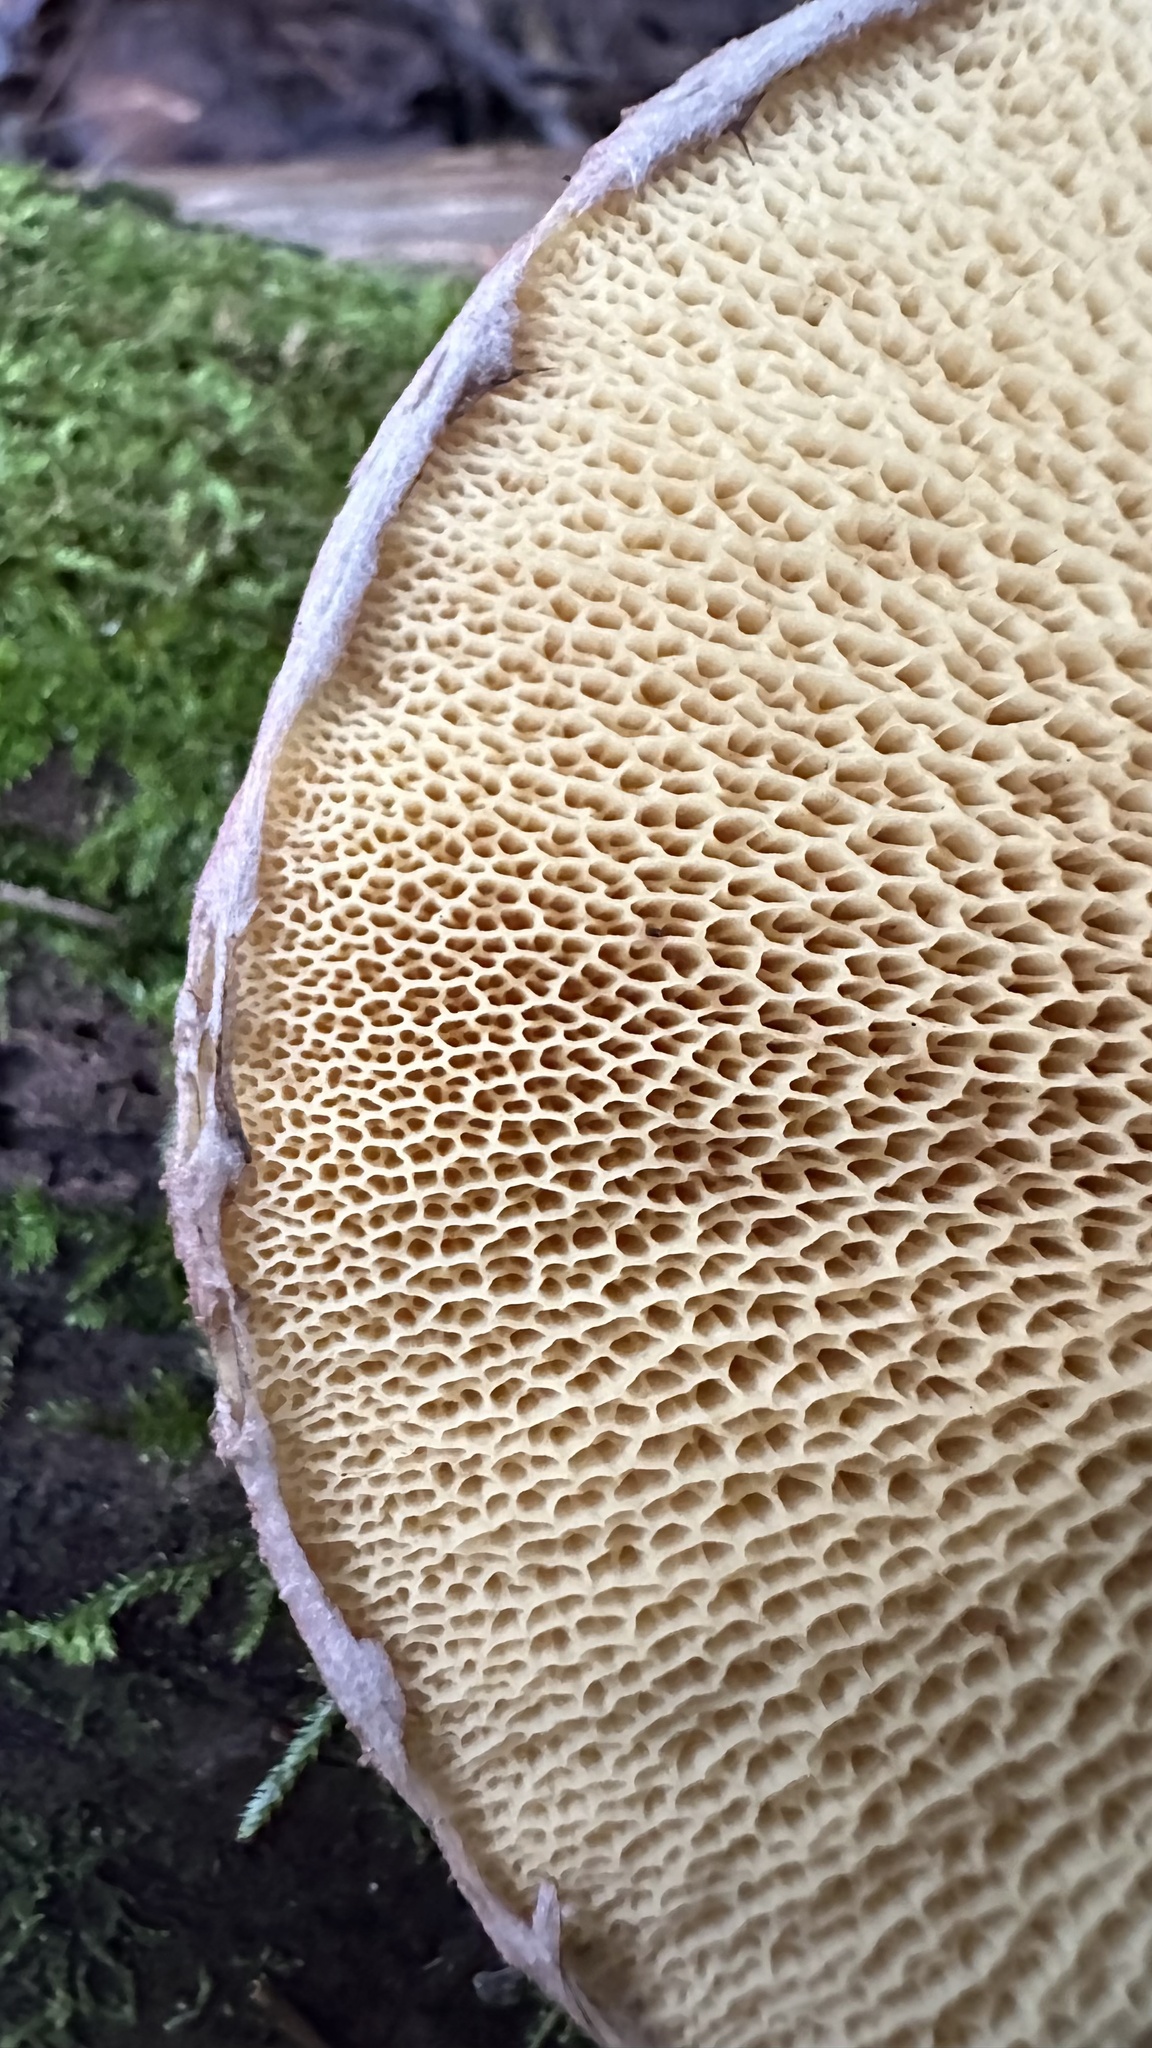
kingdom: Fungi
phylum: Basidiomycota
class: Agaricomycetes
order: Boletales
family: Suillaceae
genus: Suillus
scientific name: Suillus spraguei
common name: Painted suillus
